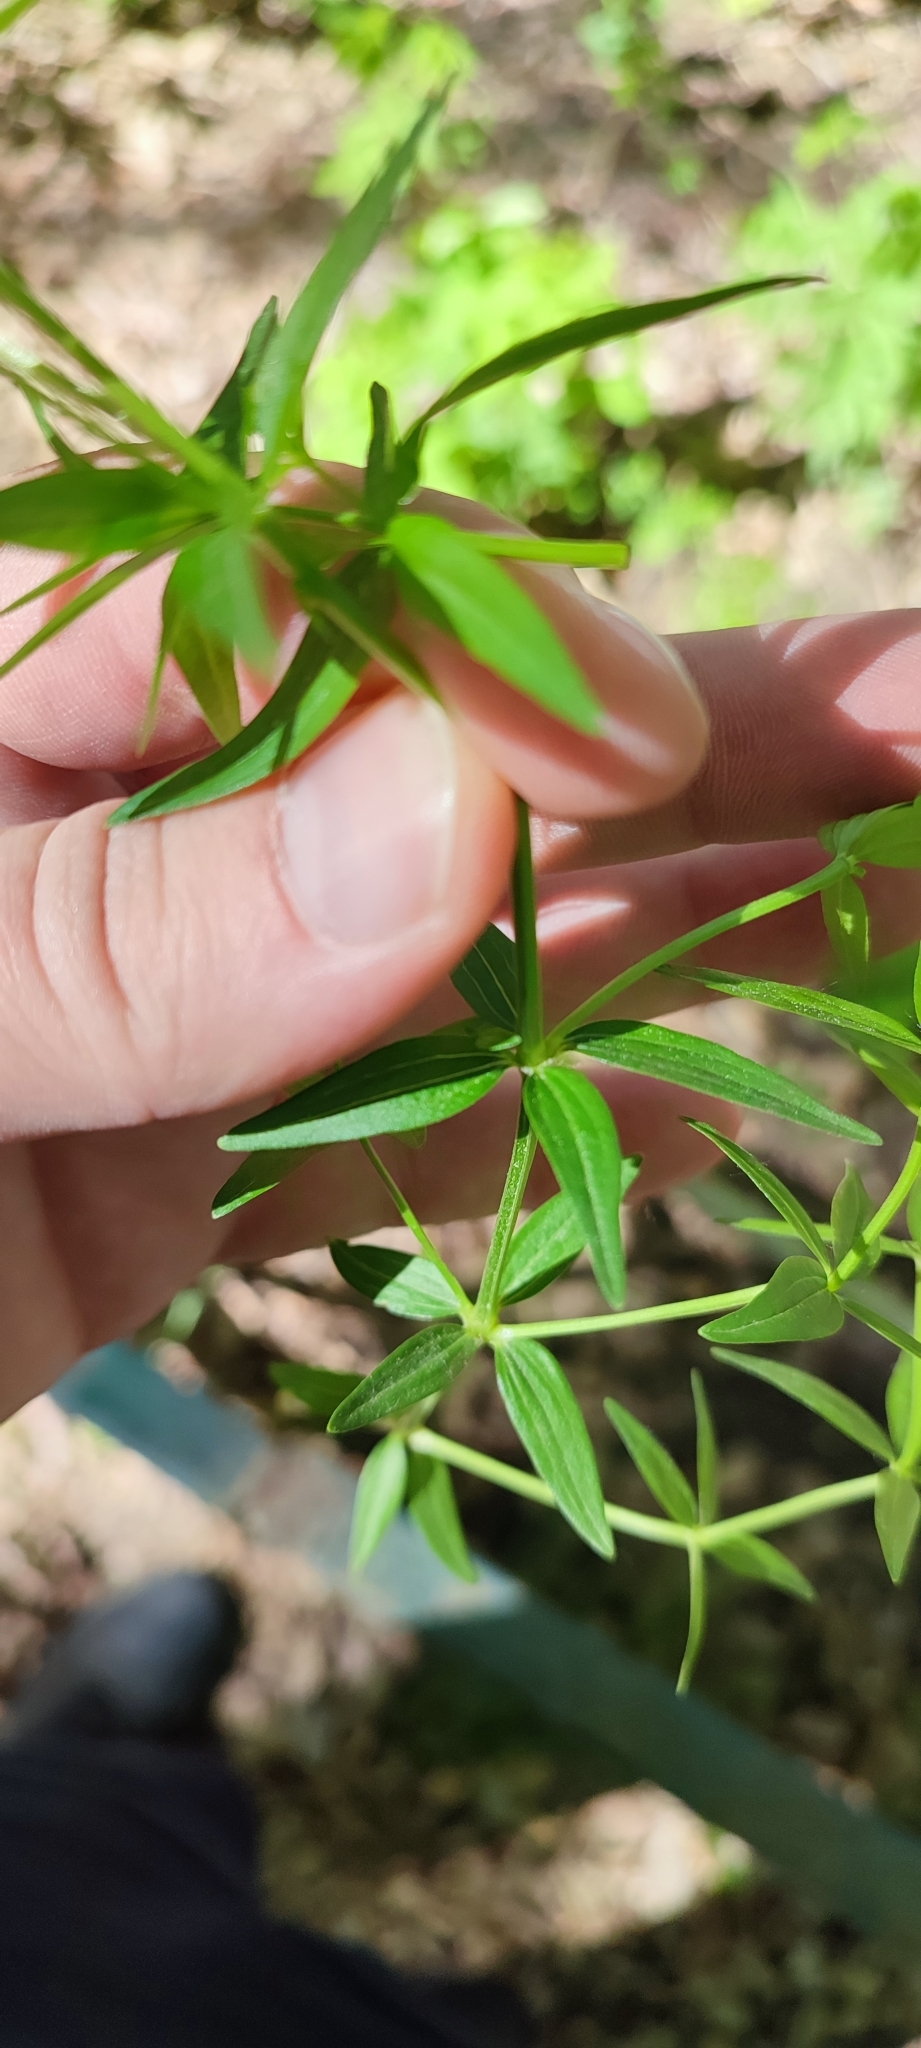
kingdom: Plantae
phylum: Tracheophyta
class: Magnoliopsida
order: Gentianales
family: Rubiaceae
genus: Galium
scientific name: Galium boreale
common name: Northern bedstraw
